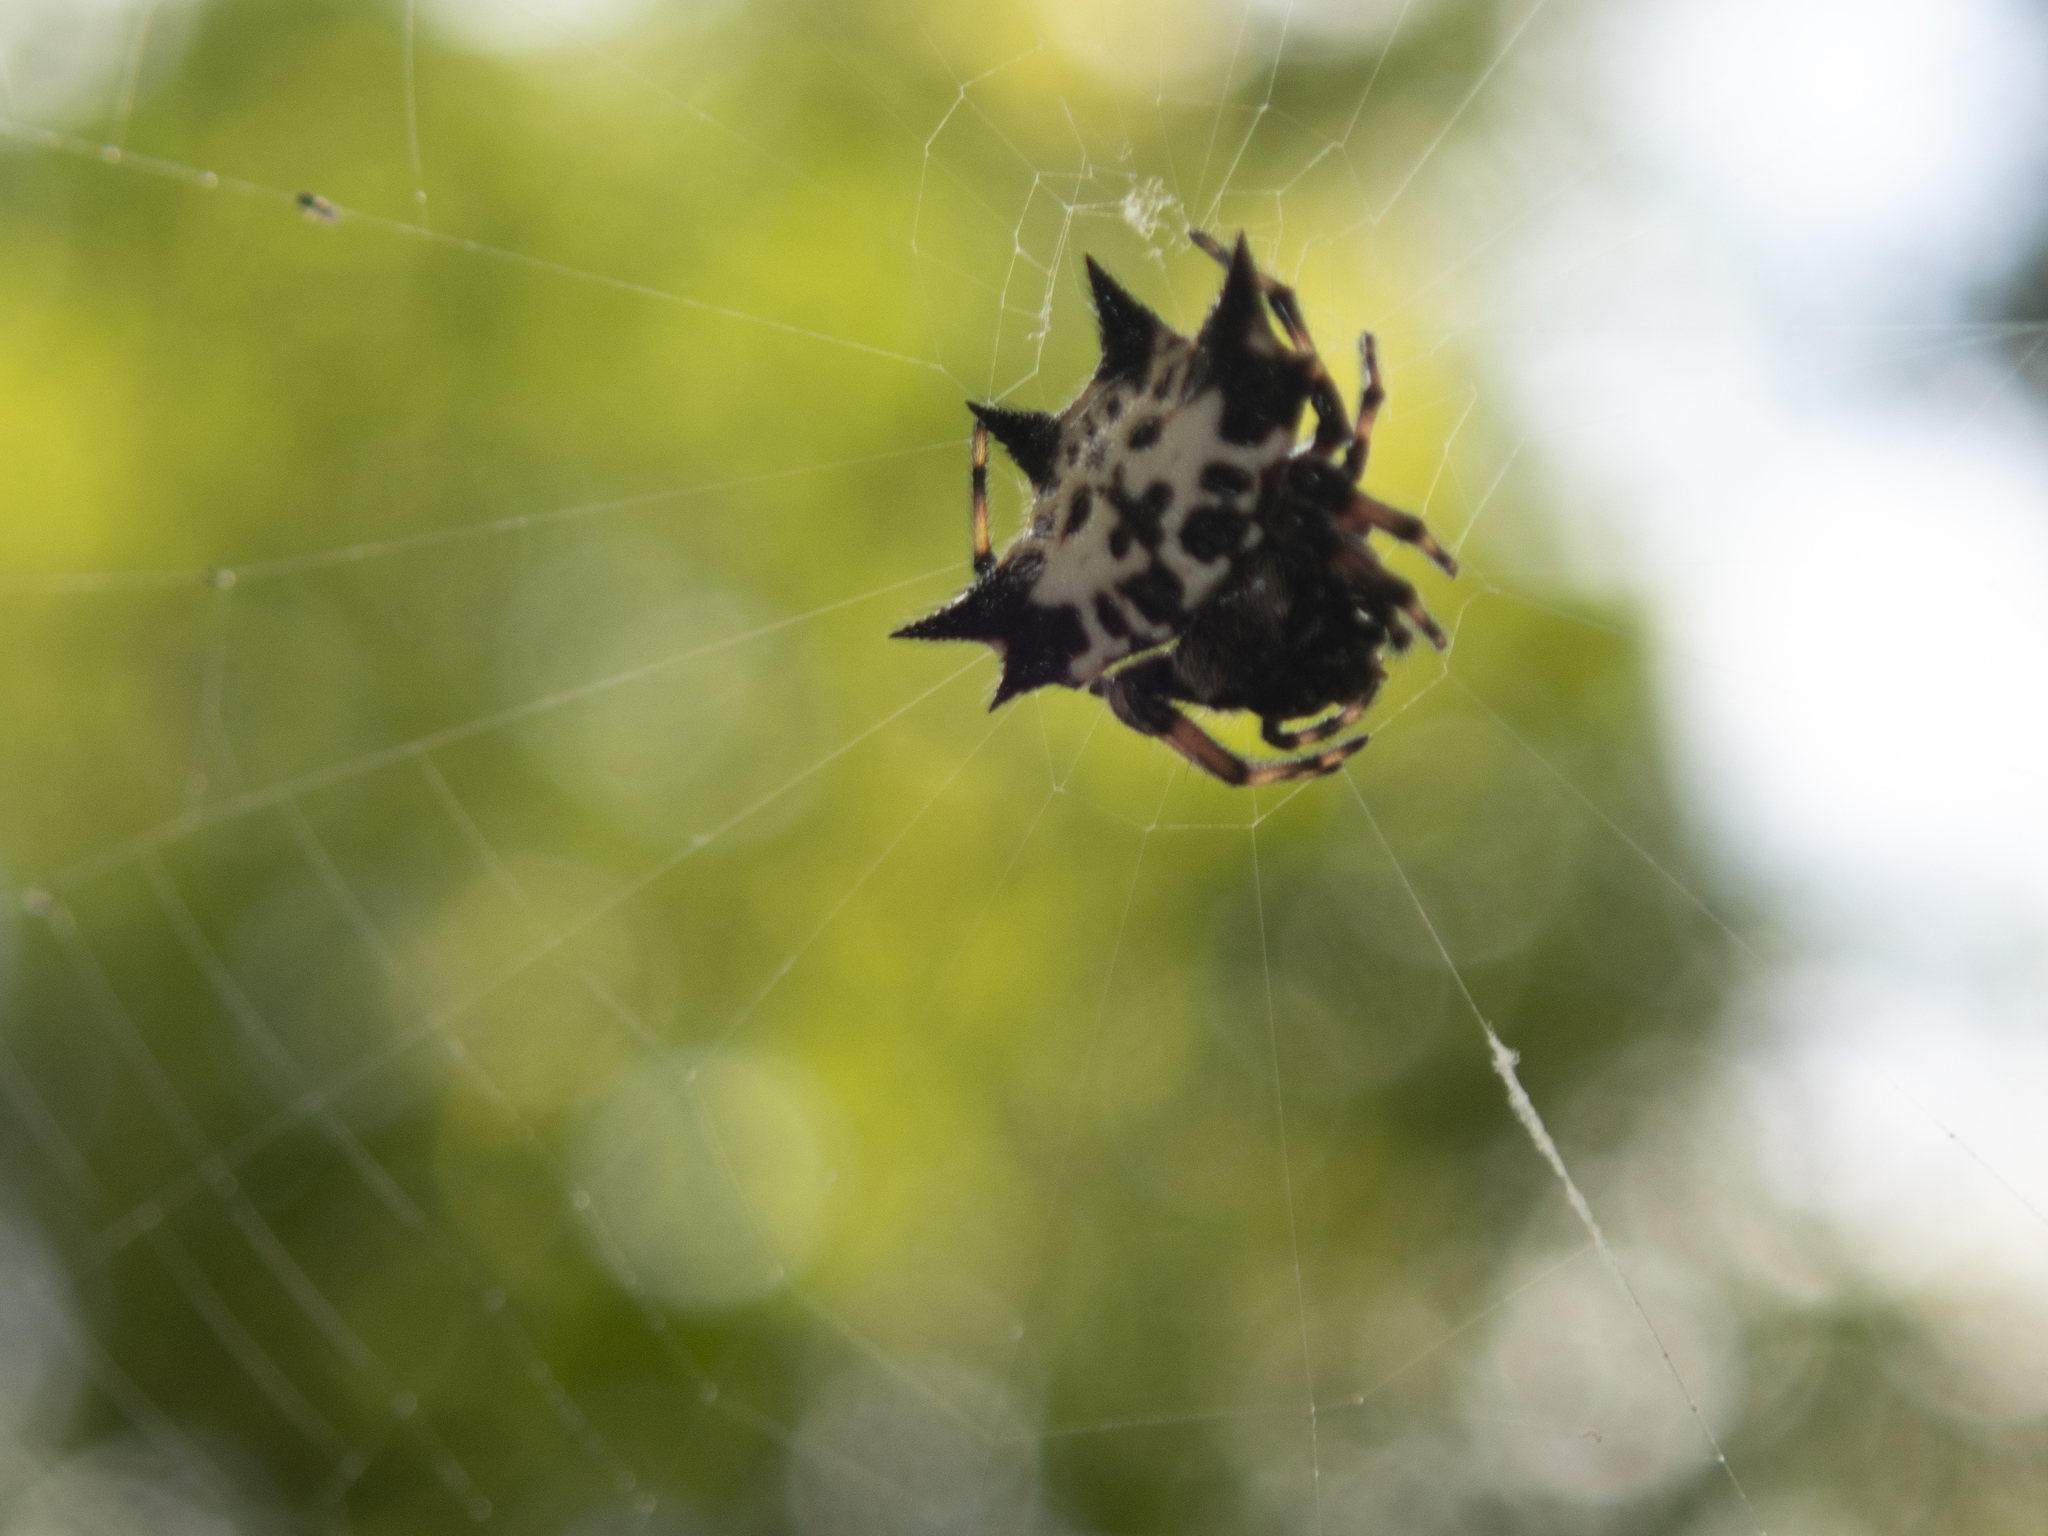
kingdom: Animalia
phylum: Arthropoda
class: Arachnida
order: Araneae
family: Araneidae
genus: Gasteracantha
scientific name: Gasteracantha kuhli
